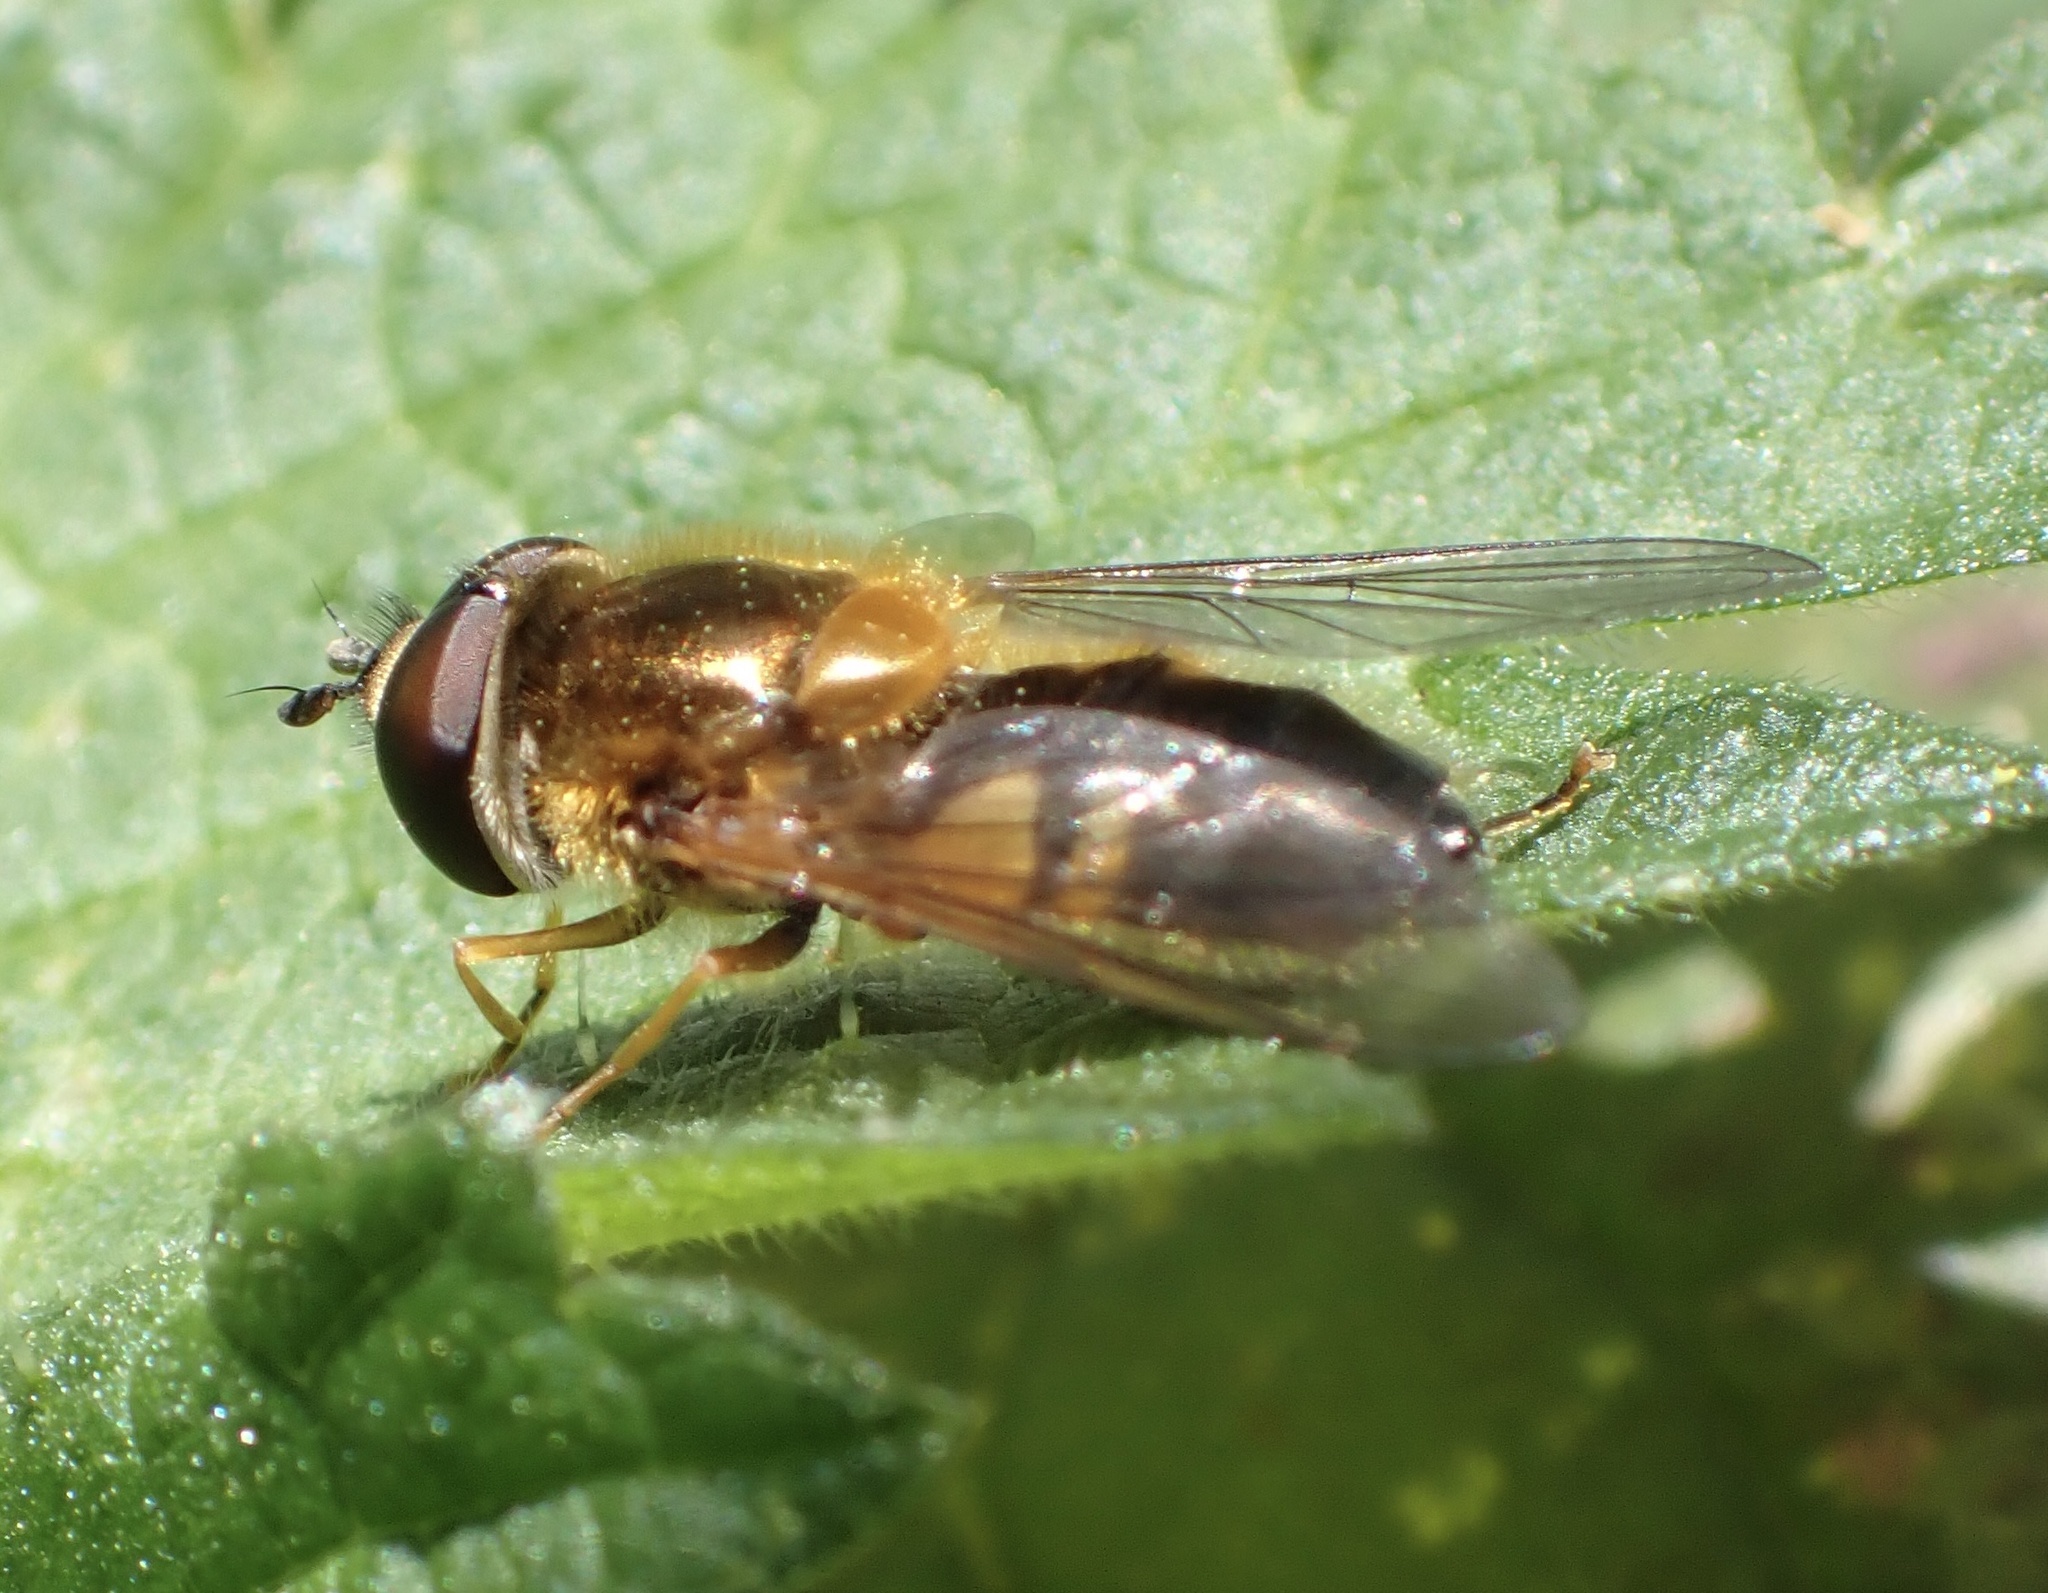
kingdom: Animalia
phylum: Arthropoda
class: Insecta
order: Diptera
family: Syrphidae
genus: Epistrophe
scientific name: Epistrophe eligans
